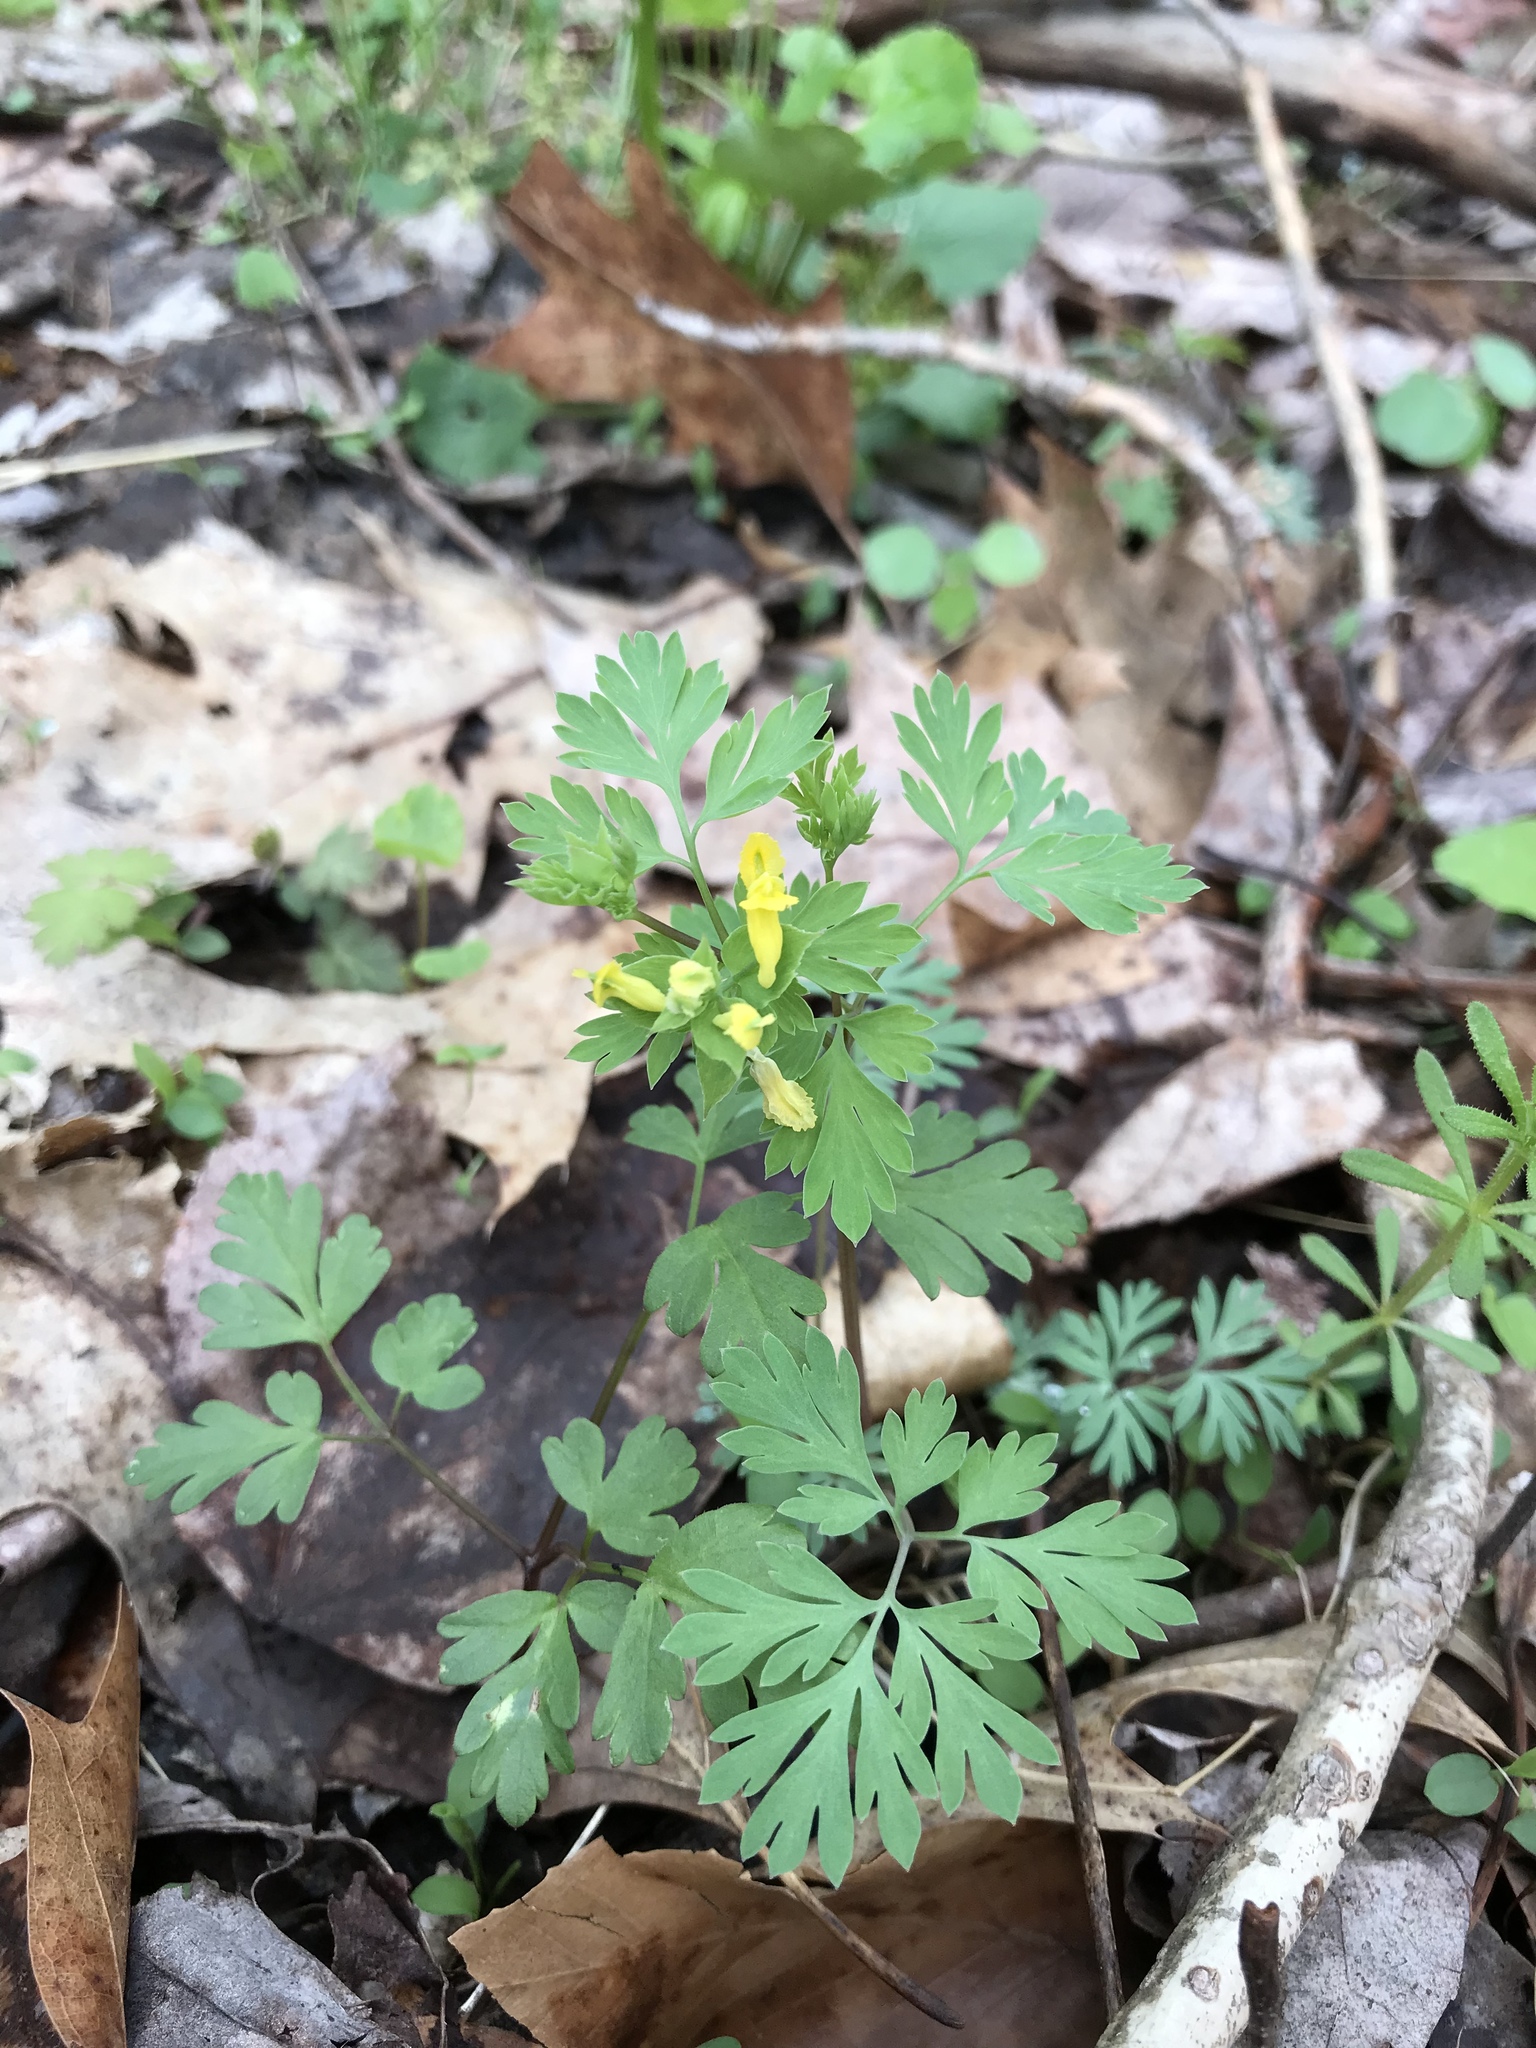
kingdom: Plantae
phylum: Tracheophyta
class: Magnoliopsida
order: Ranunculales
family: Papaveraceae
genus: Corydalis
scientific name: Corydalis flavula
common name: Yellow corydalis
